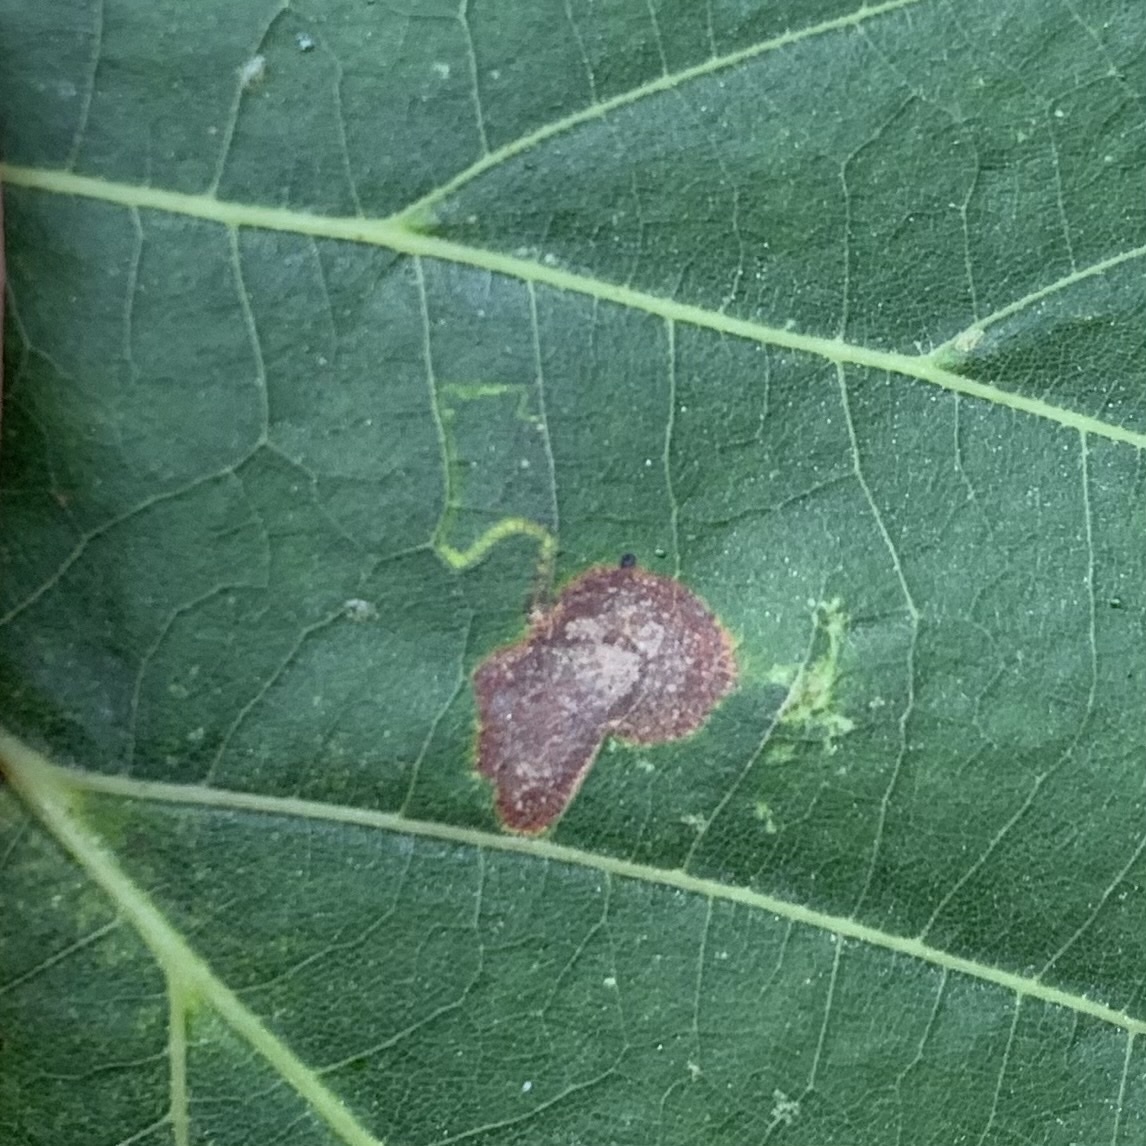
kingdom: Animalia
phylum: Arthropoda
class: Insecta
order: Lepidoptera
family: Nepticulidae
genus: Stigmella
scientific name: Stigmella argentifasciella
